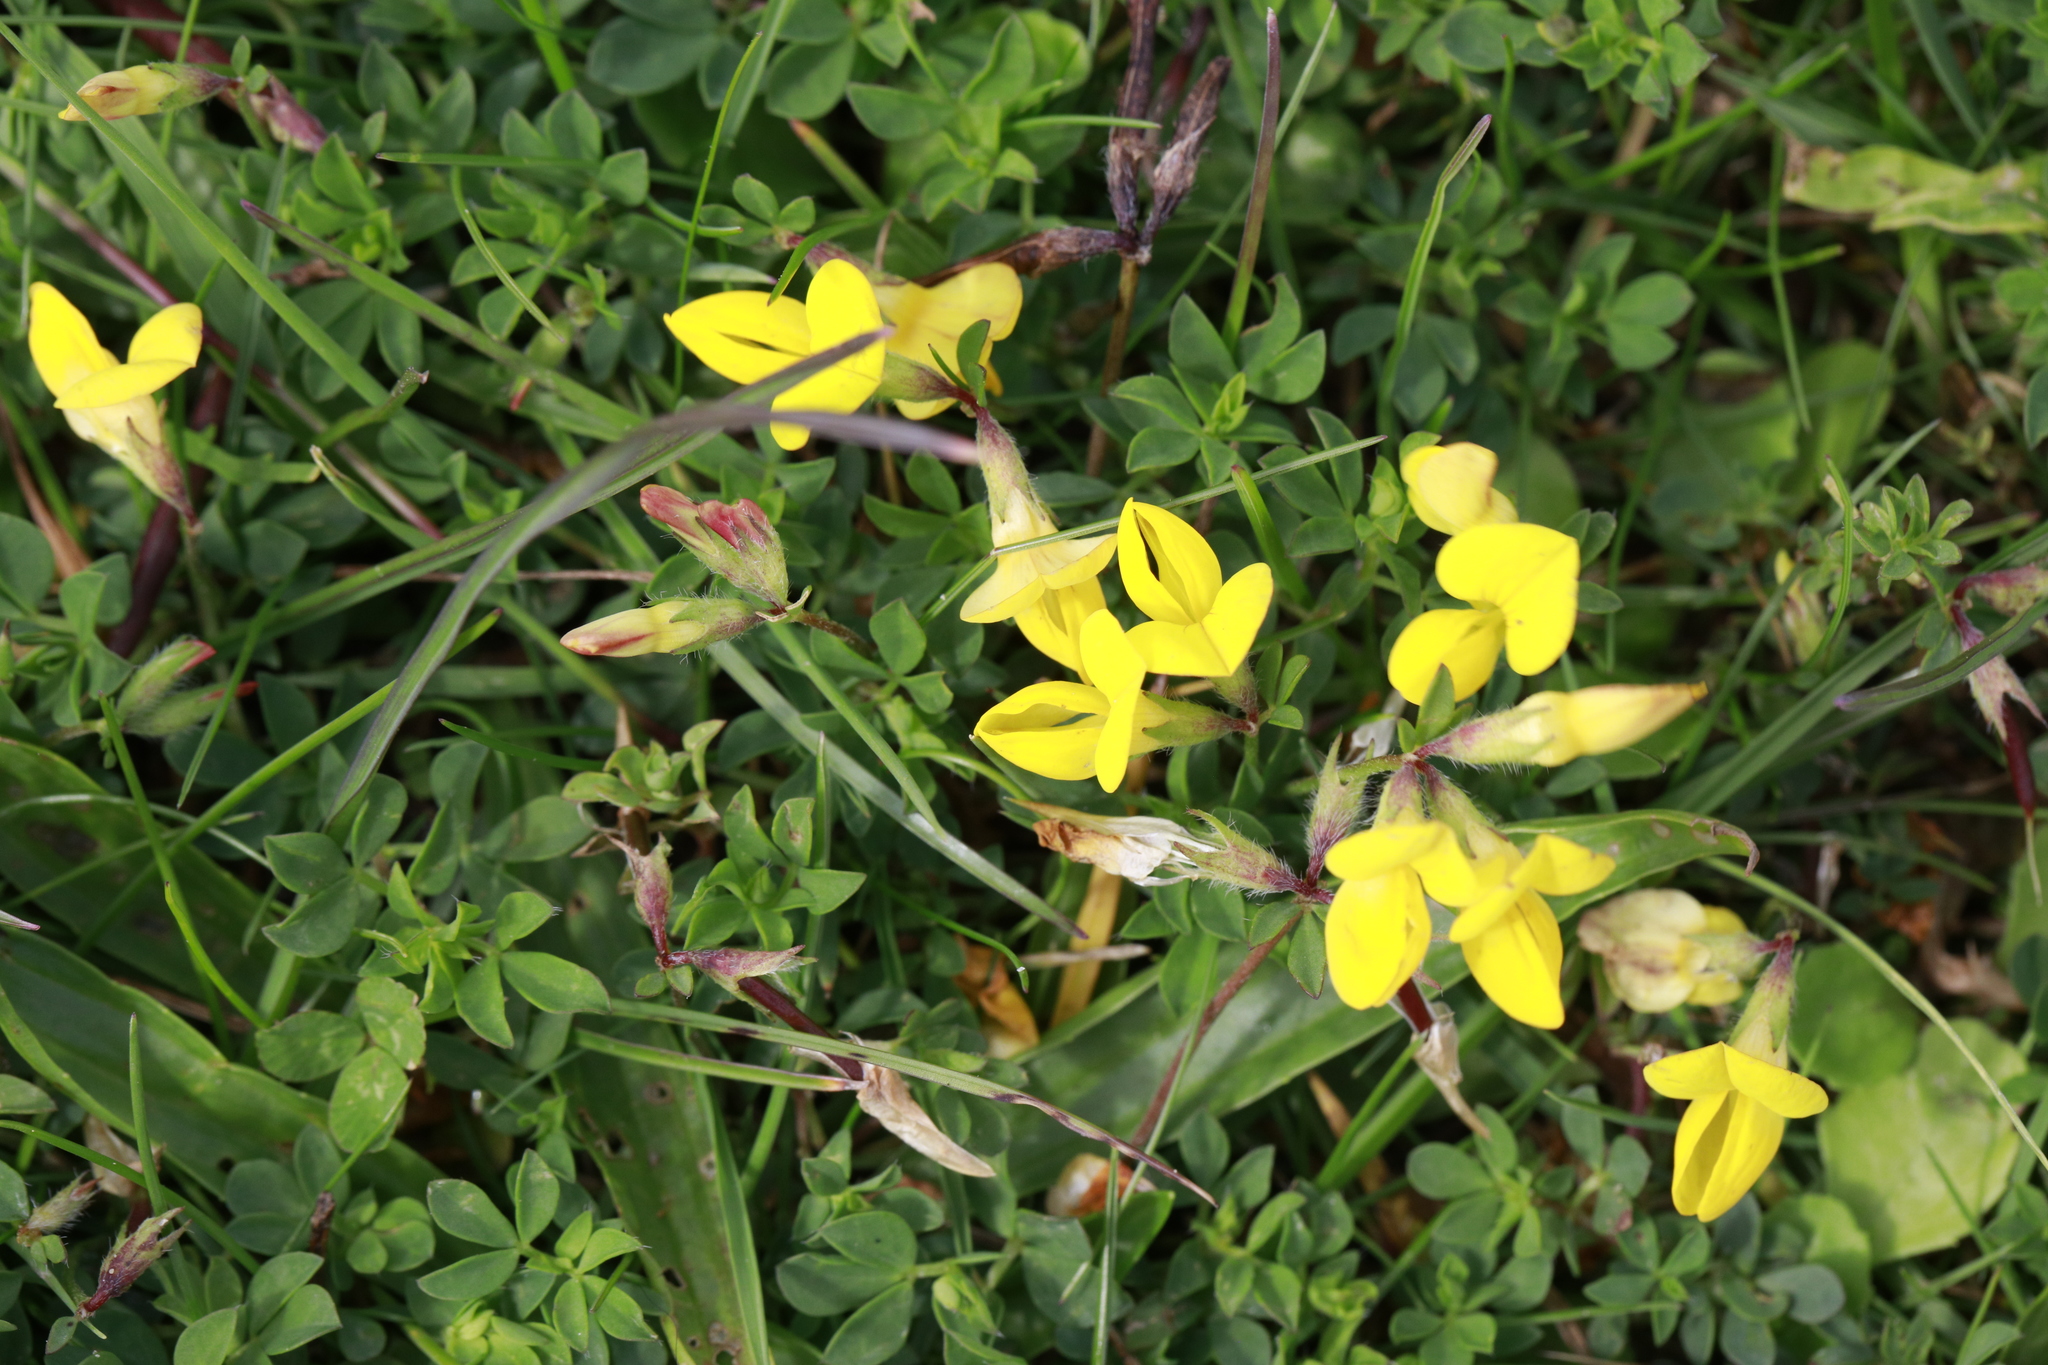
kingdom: Plantae
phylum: Tracheophyta
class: Magnoliopsida
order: Fabales
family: Fabaceae
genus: Lotus
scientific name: Lotus corniculatus
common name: Common bird's-foot-trefoil
